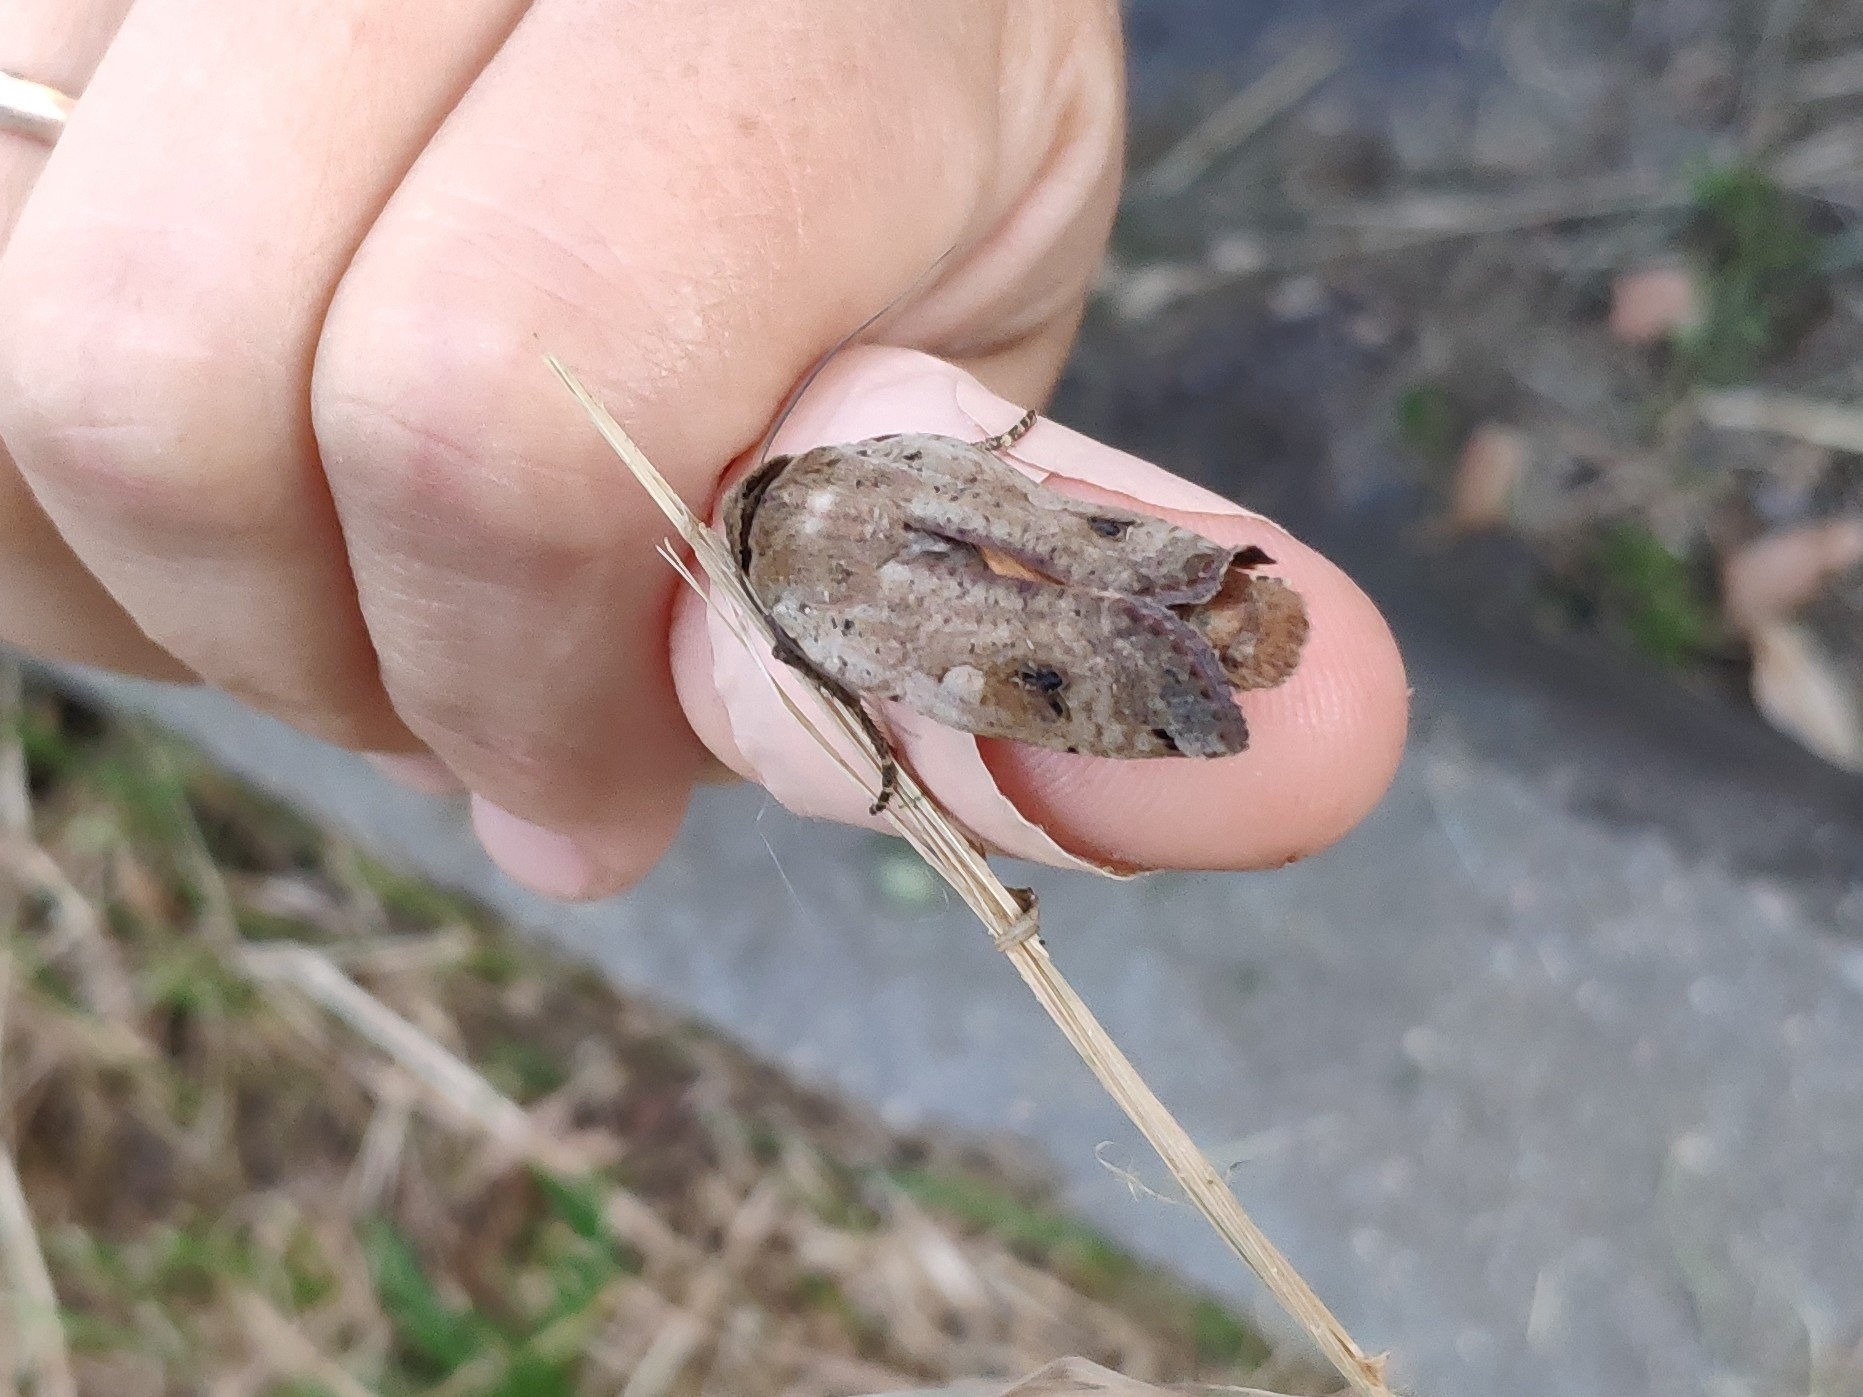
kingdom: Animalia
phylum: Arthropoda
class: Insecta
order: Lepidoptera
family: Noctuidae
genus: Noctua
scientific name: Noctua pronuba
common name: Large yellow underwing
